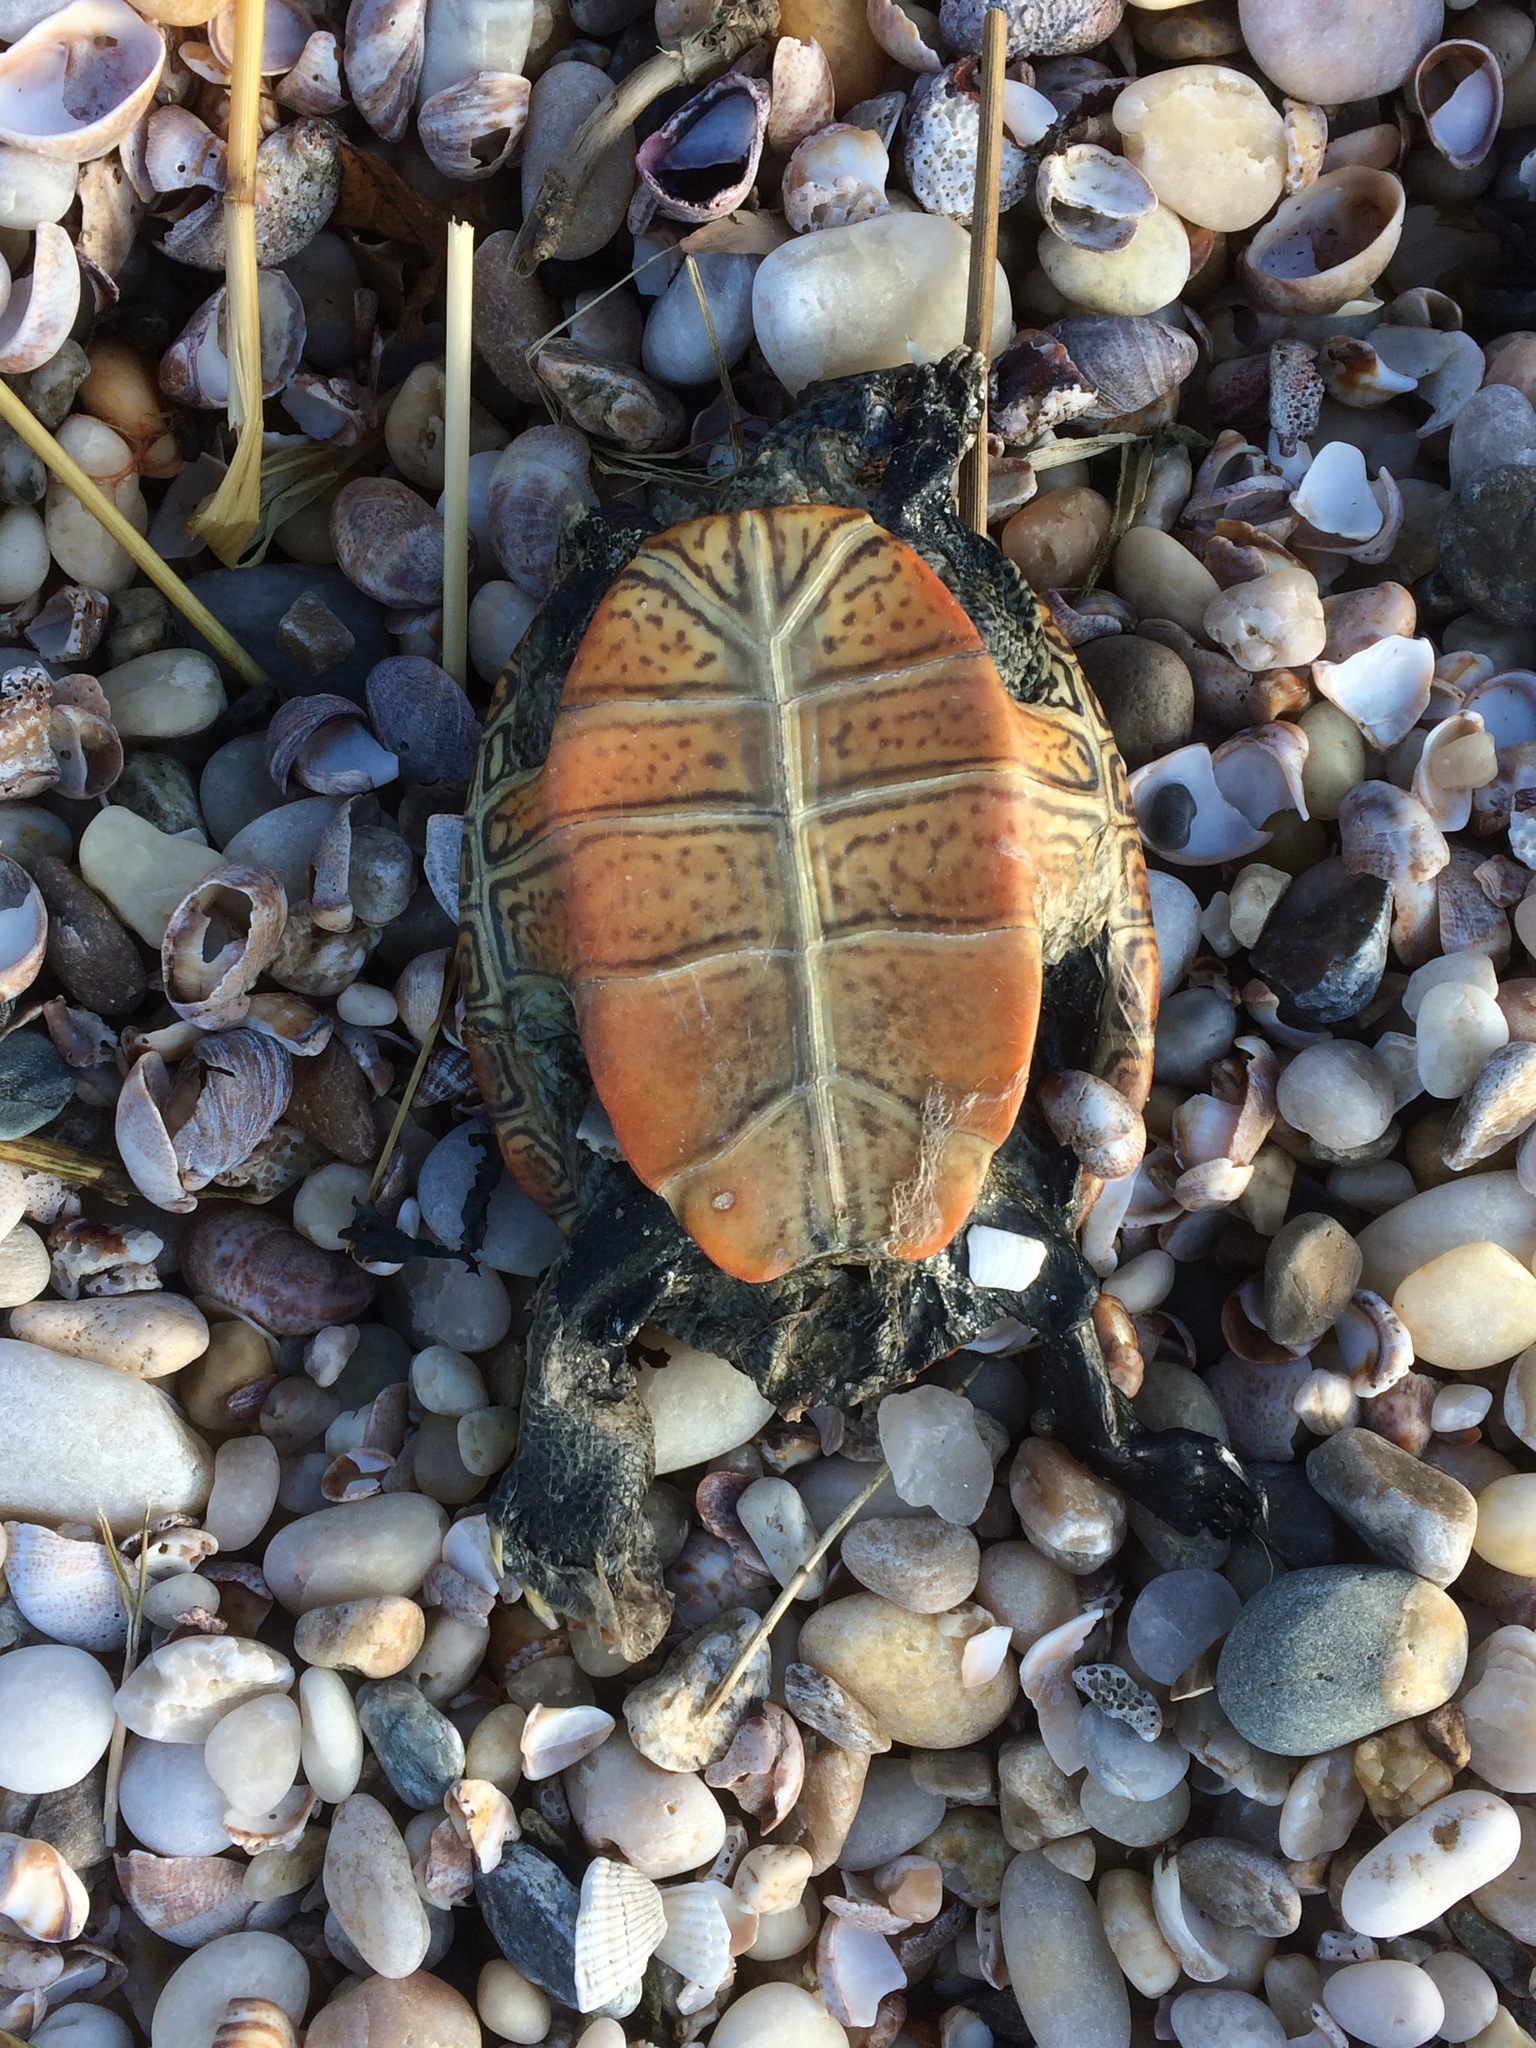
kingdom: Animalia
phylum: Chordata
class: Testudines
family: Emydidae
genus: Malaclemys
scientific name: Malaclemys terrapin
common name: Diamondback terrapin
